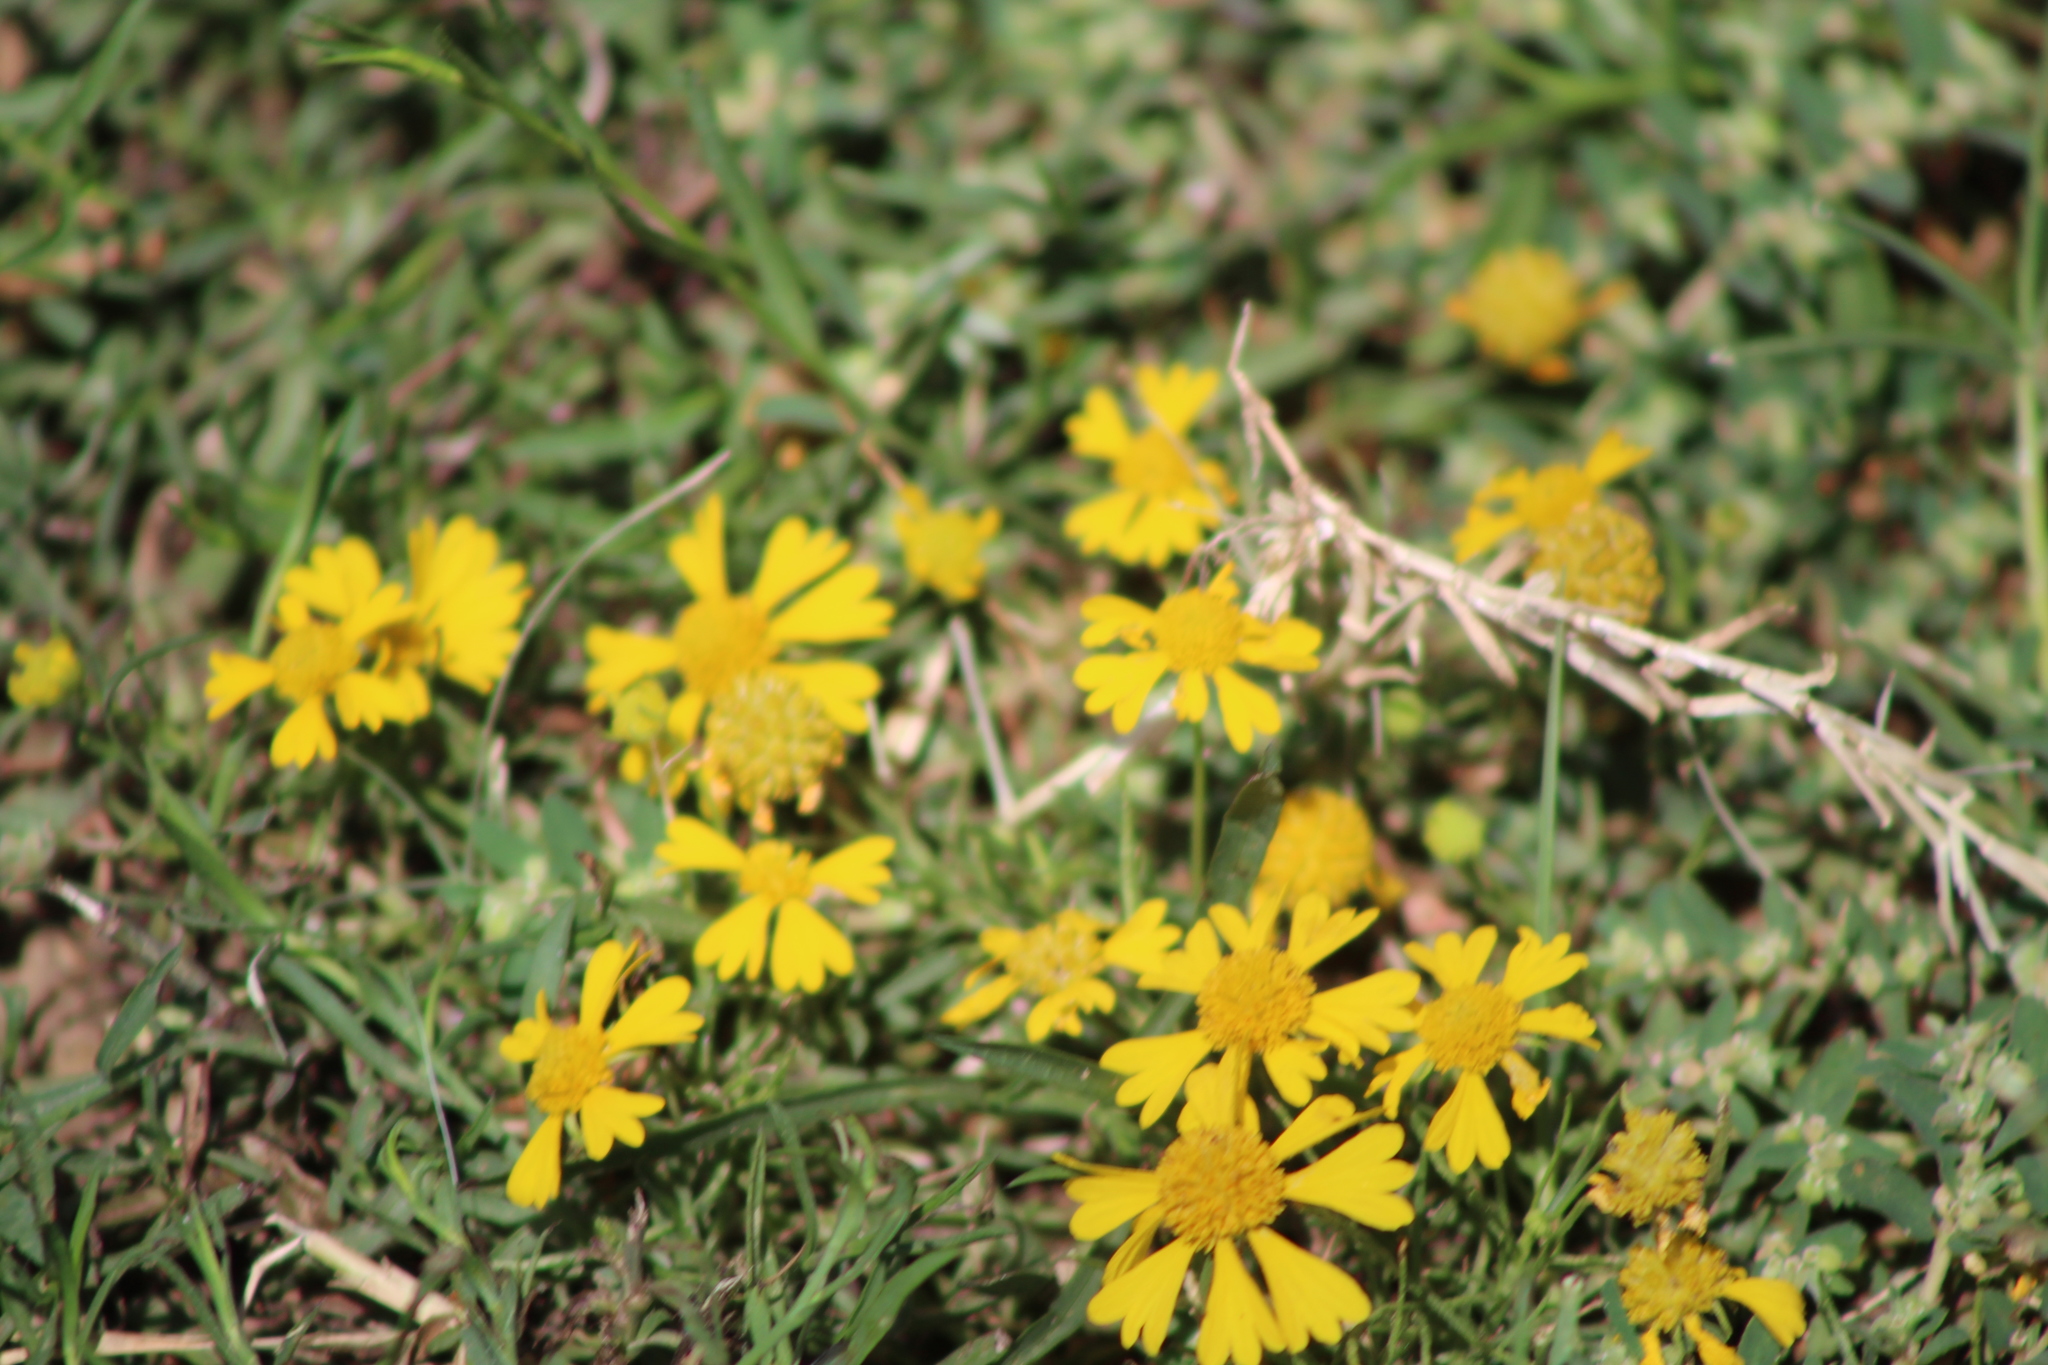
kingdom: Plantae
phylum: Tracheophyta
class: Magnoliopsida
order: Asterales
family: Asteraceae
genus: Helenium
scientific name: Helenium amarum
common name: Bitter sneezeweed
